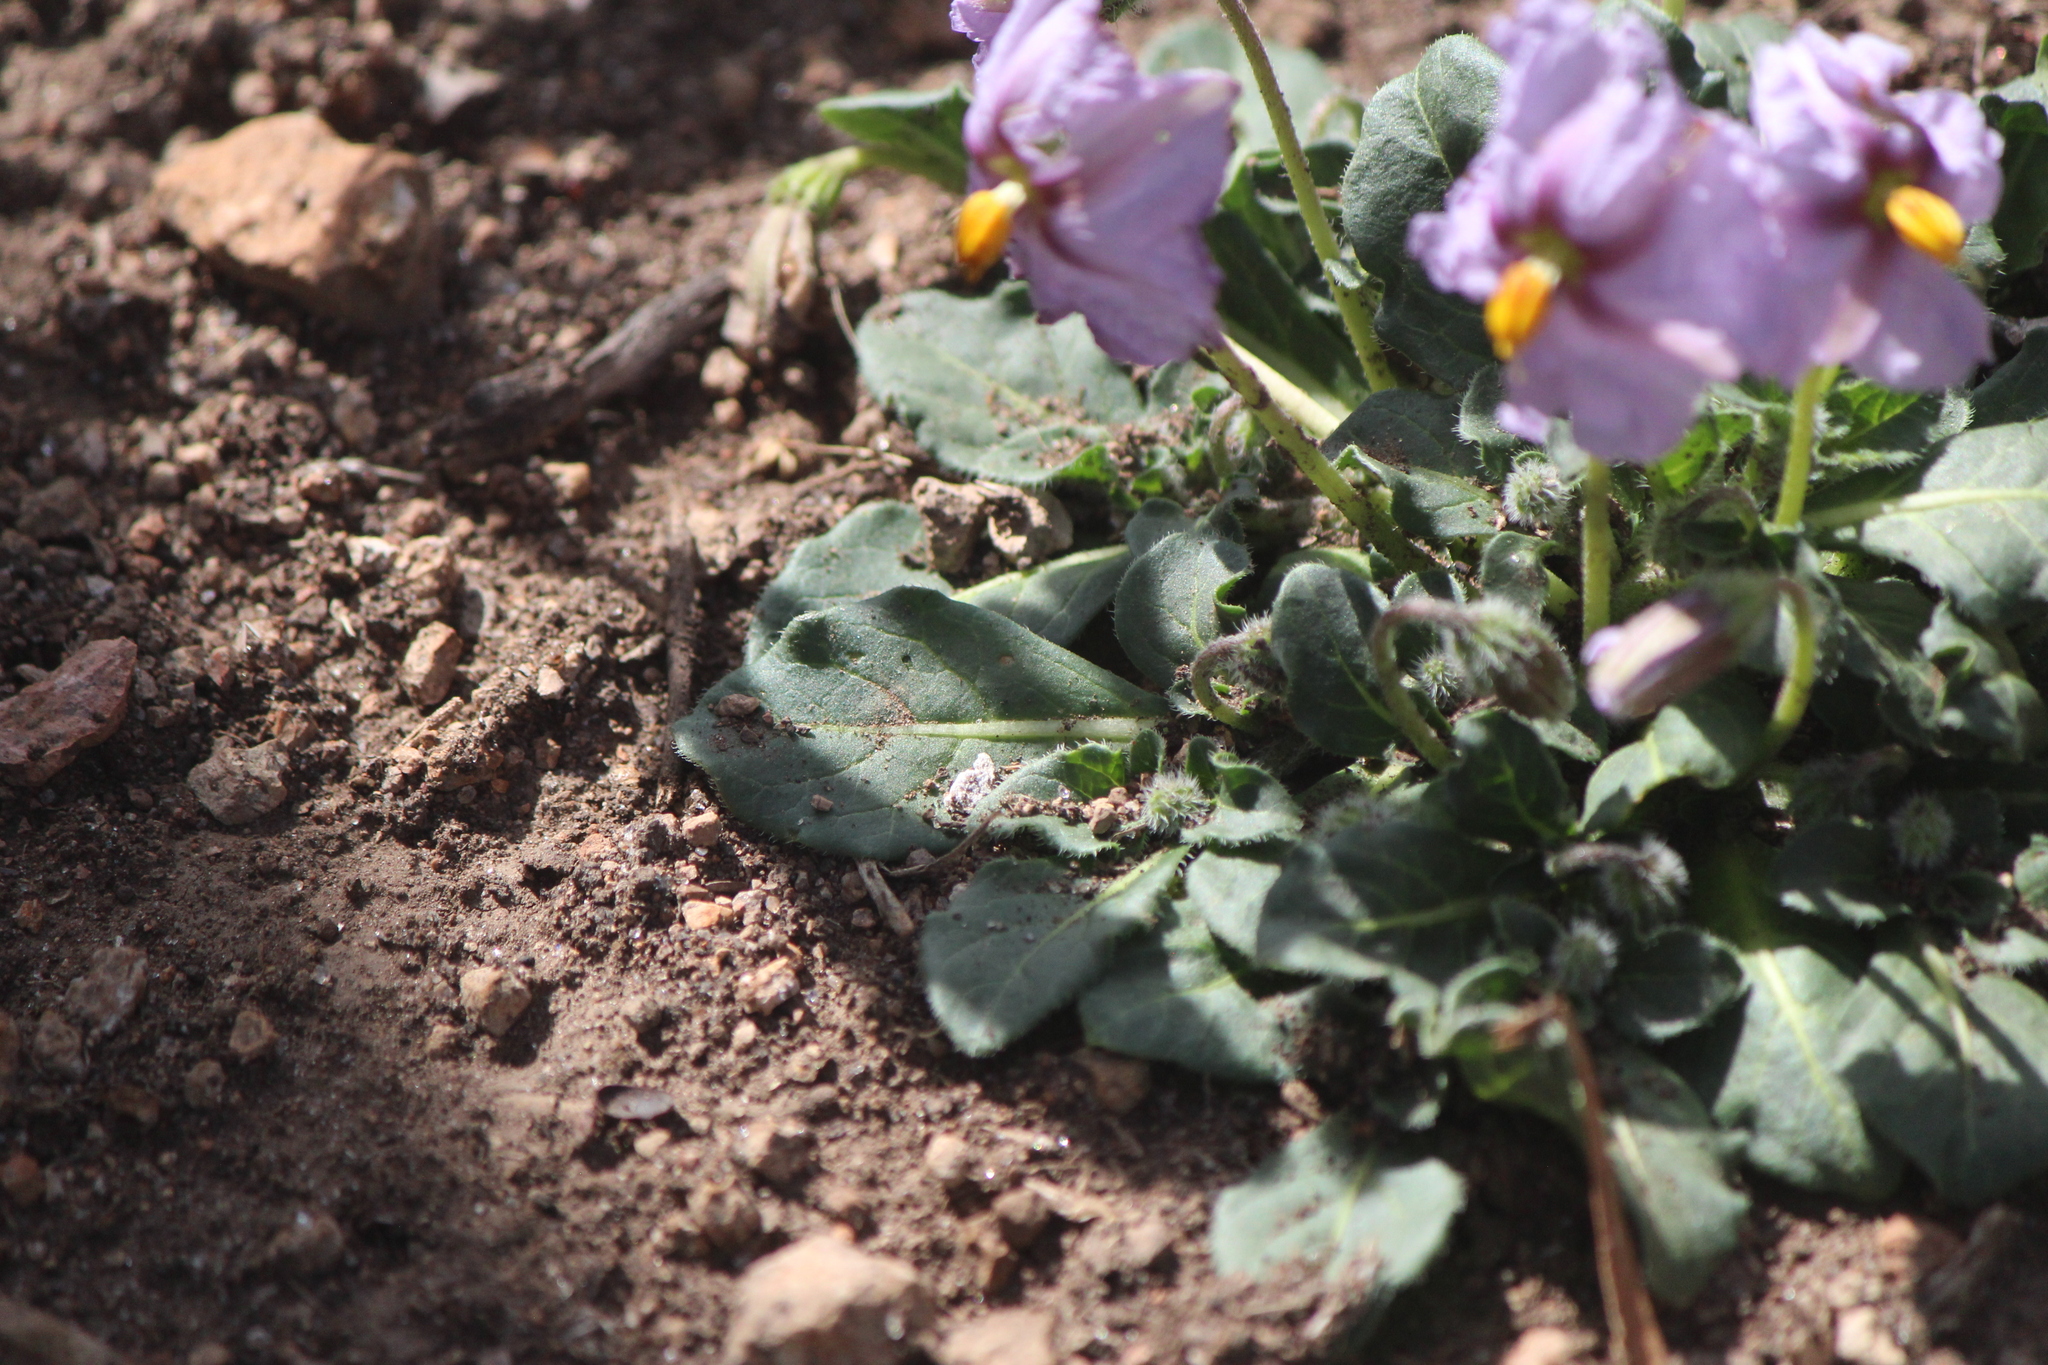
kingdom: Plantae
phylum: Tracheophyta
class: Magnoliopsida
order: Solanales
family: Solanaceae
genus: Lycianthes
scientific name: Lycianthes peduncularis
